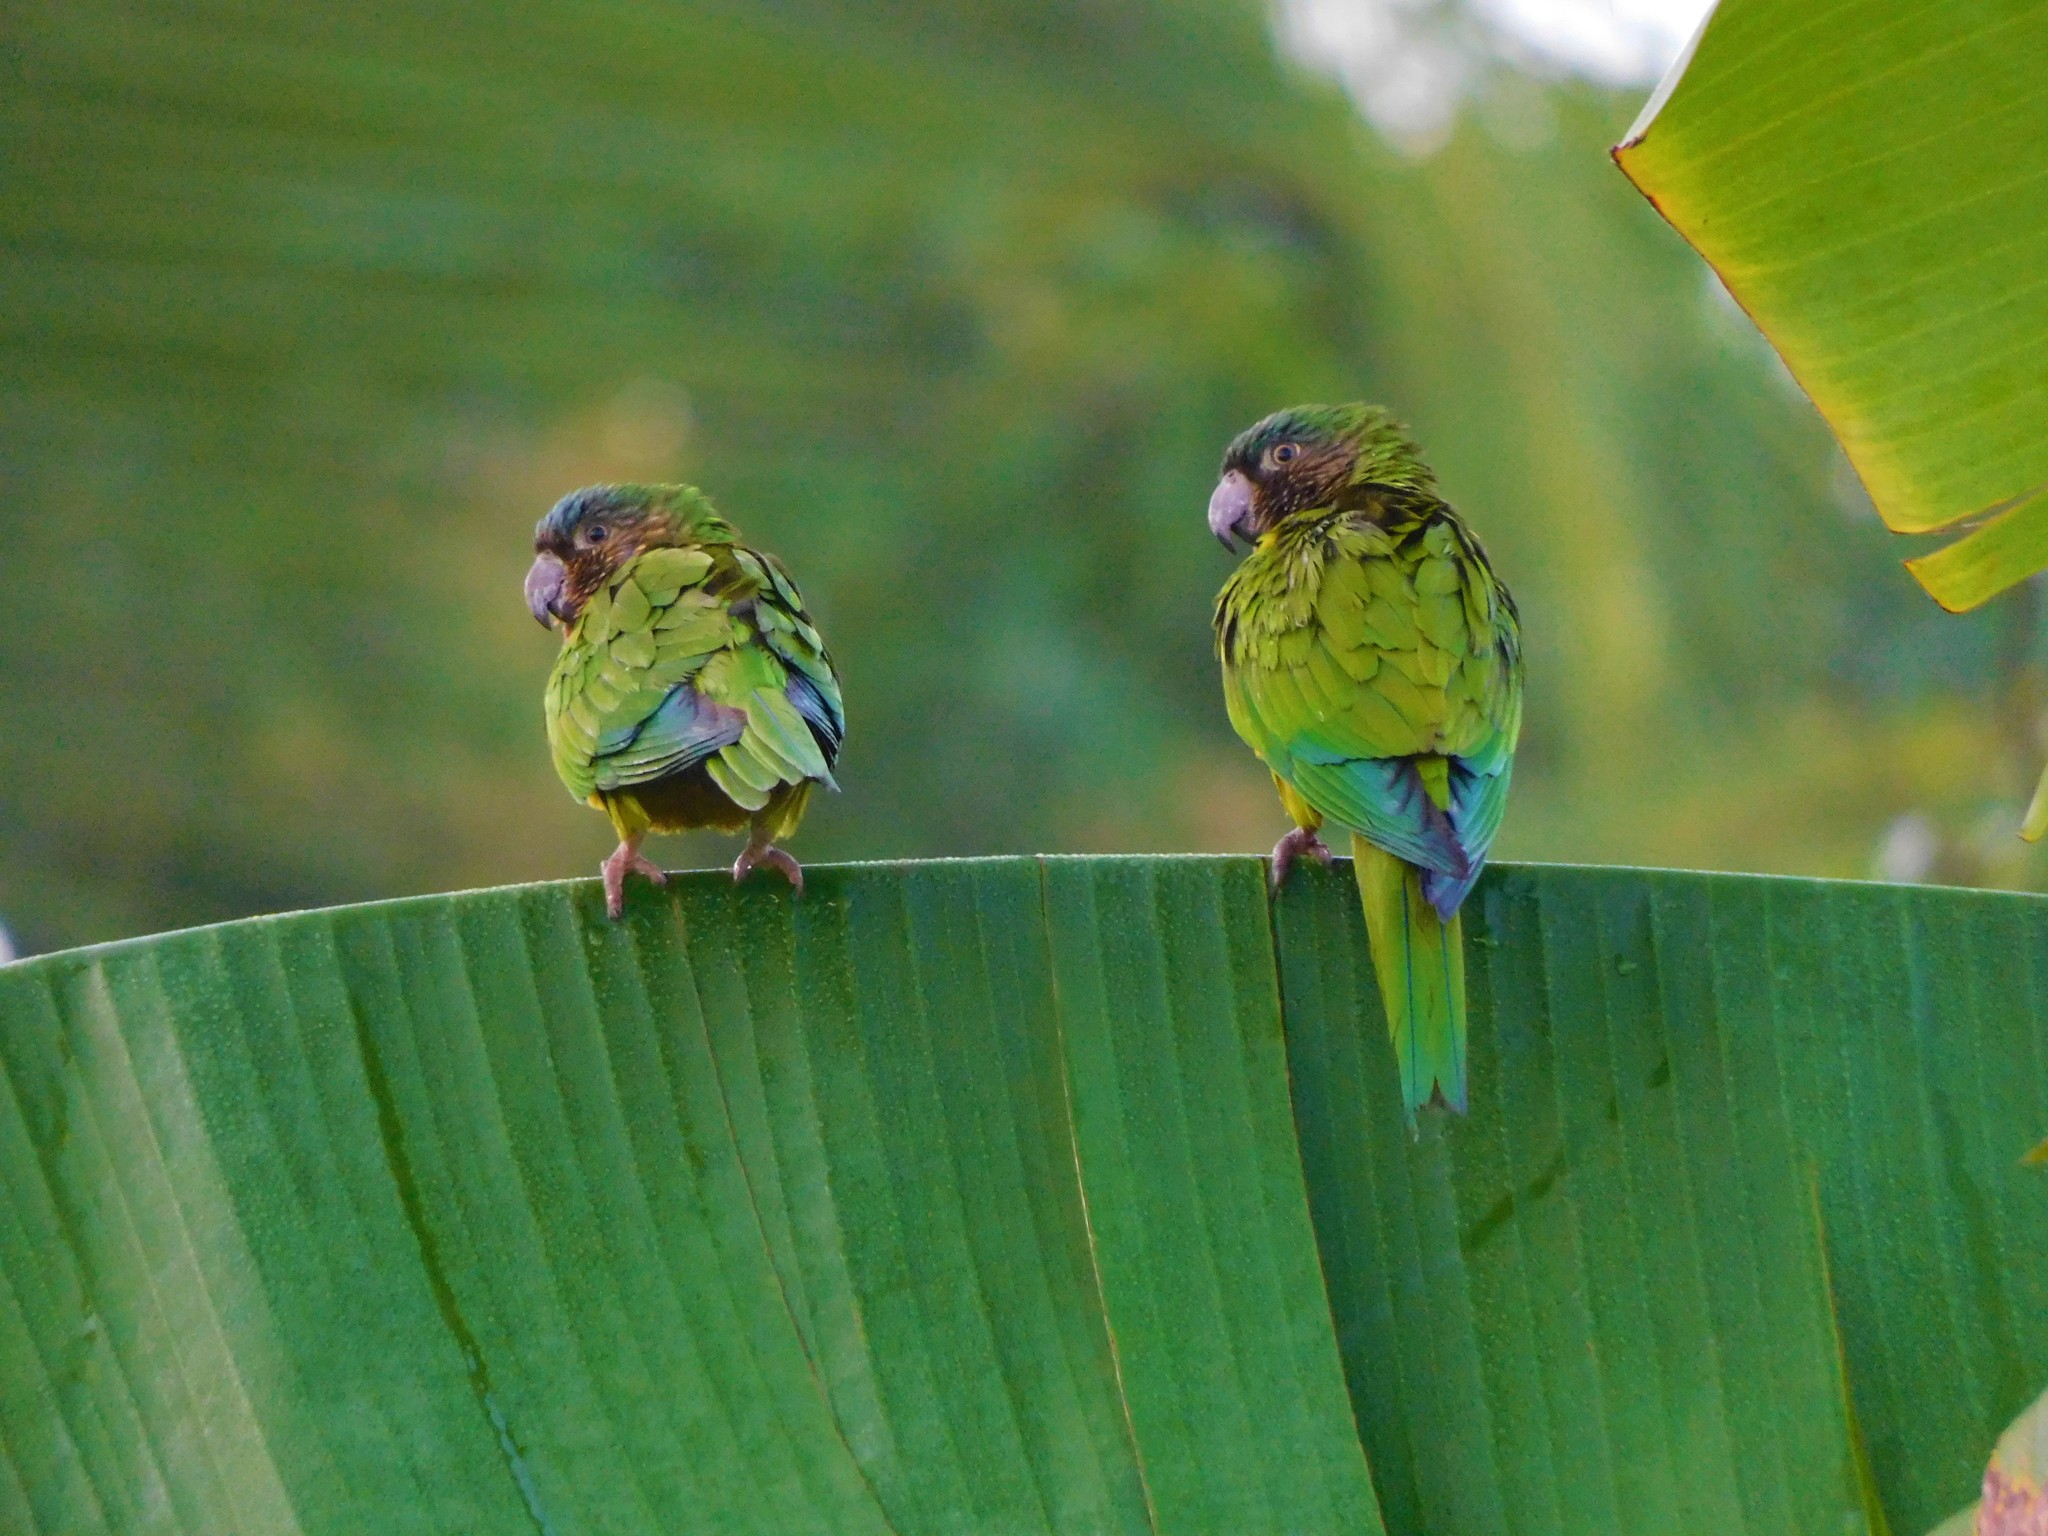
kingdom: Animalia
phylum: Chordata
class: Aves
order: Psittaciformes
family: Psittacidae
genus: Aratinga
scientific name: Aratinga pertinax
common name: Brown-throated parakeet
